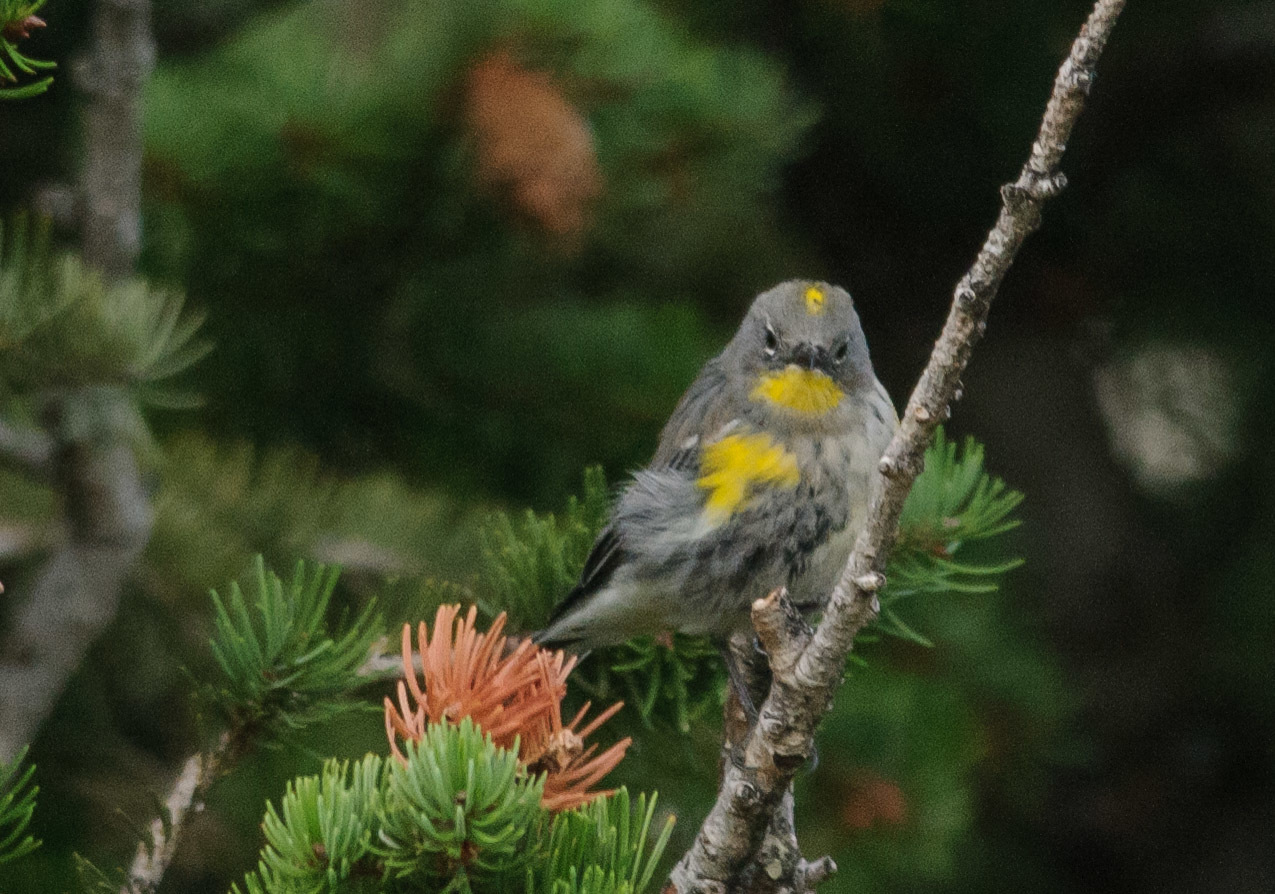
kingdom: Animalia
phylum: Chordata
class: Aves
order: Passeriformes
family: Parulidae
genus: Setophaga
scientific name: Setophaga coronata
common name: Myrtle warbler
